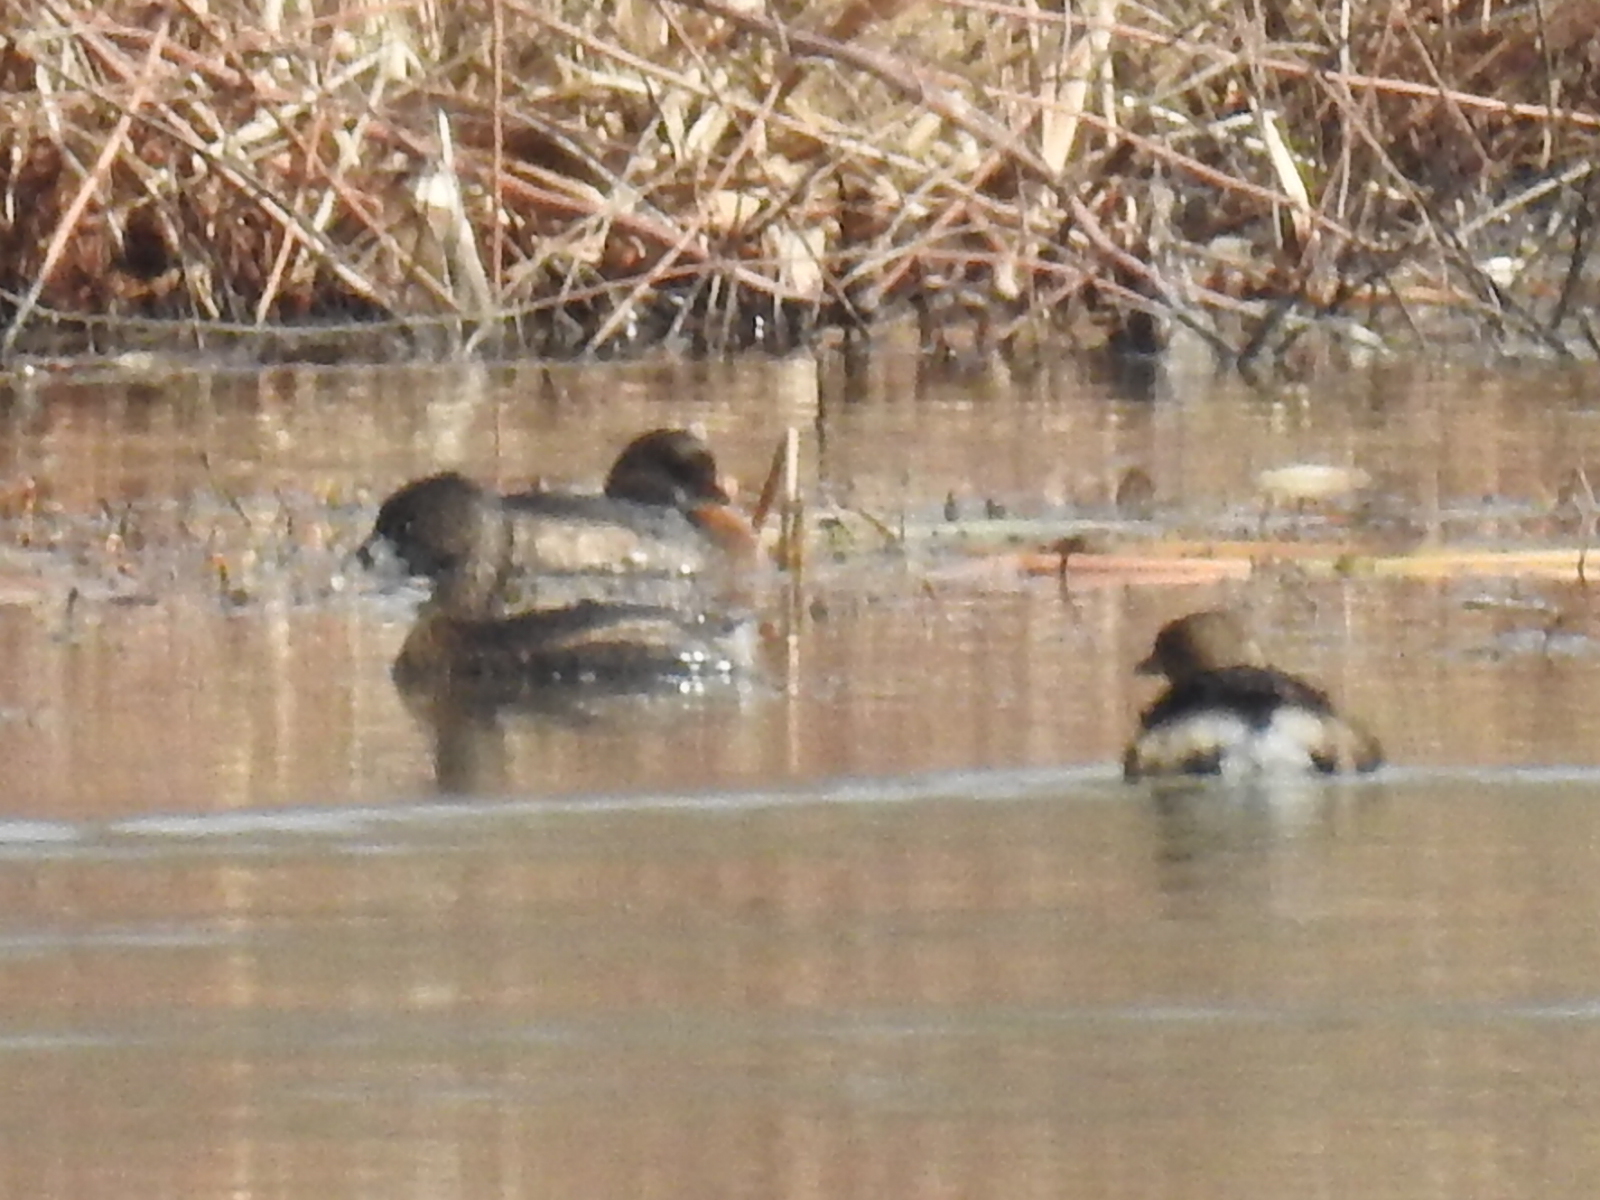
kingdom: Animalia
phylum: Chordata
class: Aves
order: Podicipediformes
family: Podicipedidae
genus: Podilymbus
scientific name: Podilymbus podiceps
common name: Pied-billed grebe
